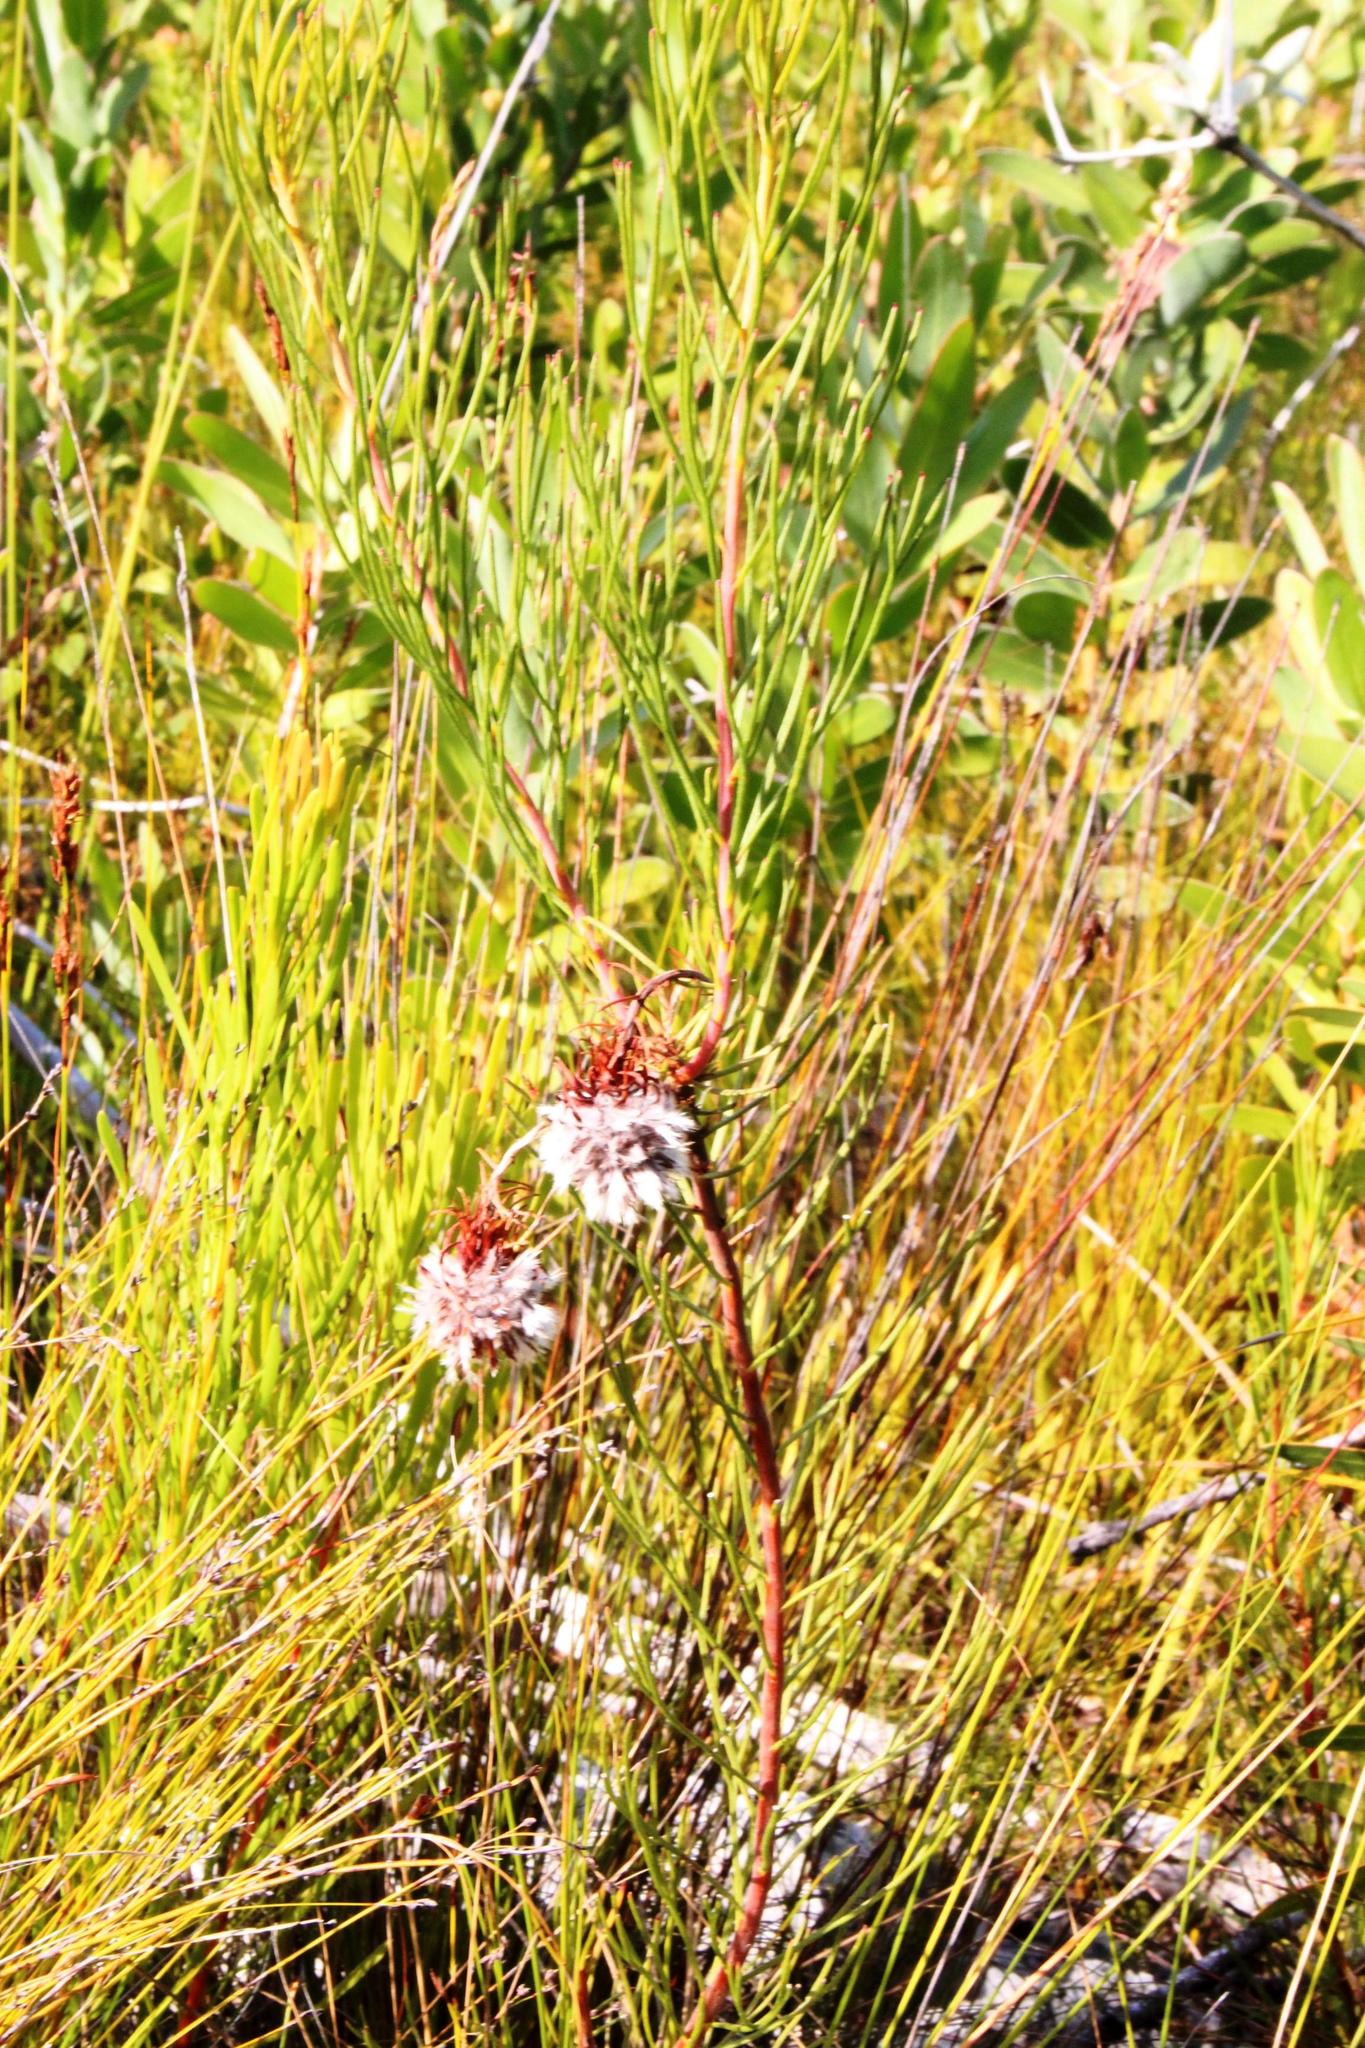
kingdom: Plantae
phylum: Tracheophyta
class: Magnoliopsida
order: Proteales
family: Proteaceae
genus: Serruria
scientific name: Serruria phylicoides
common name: Bearded spiderhead
